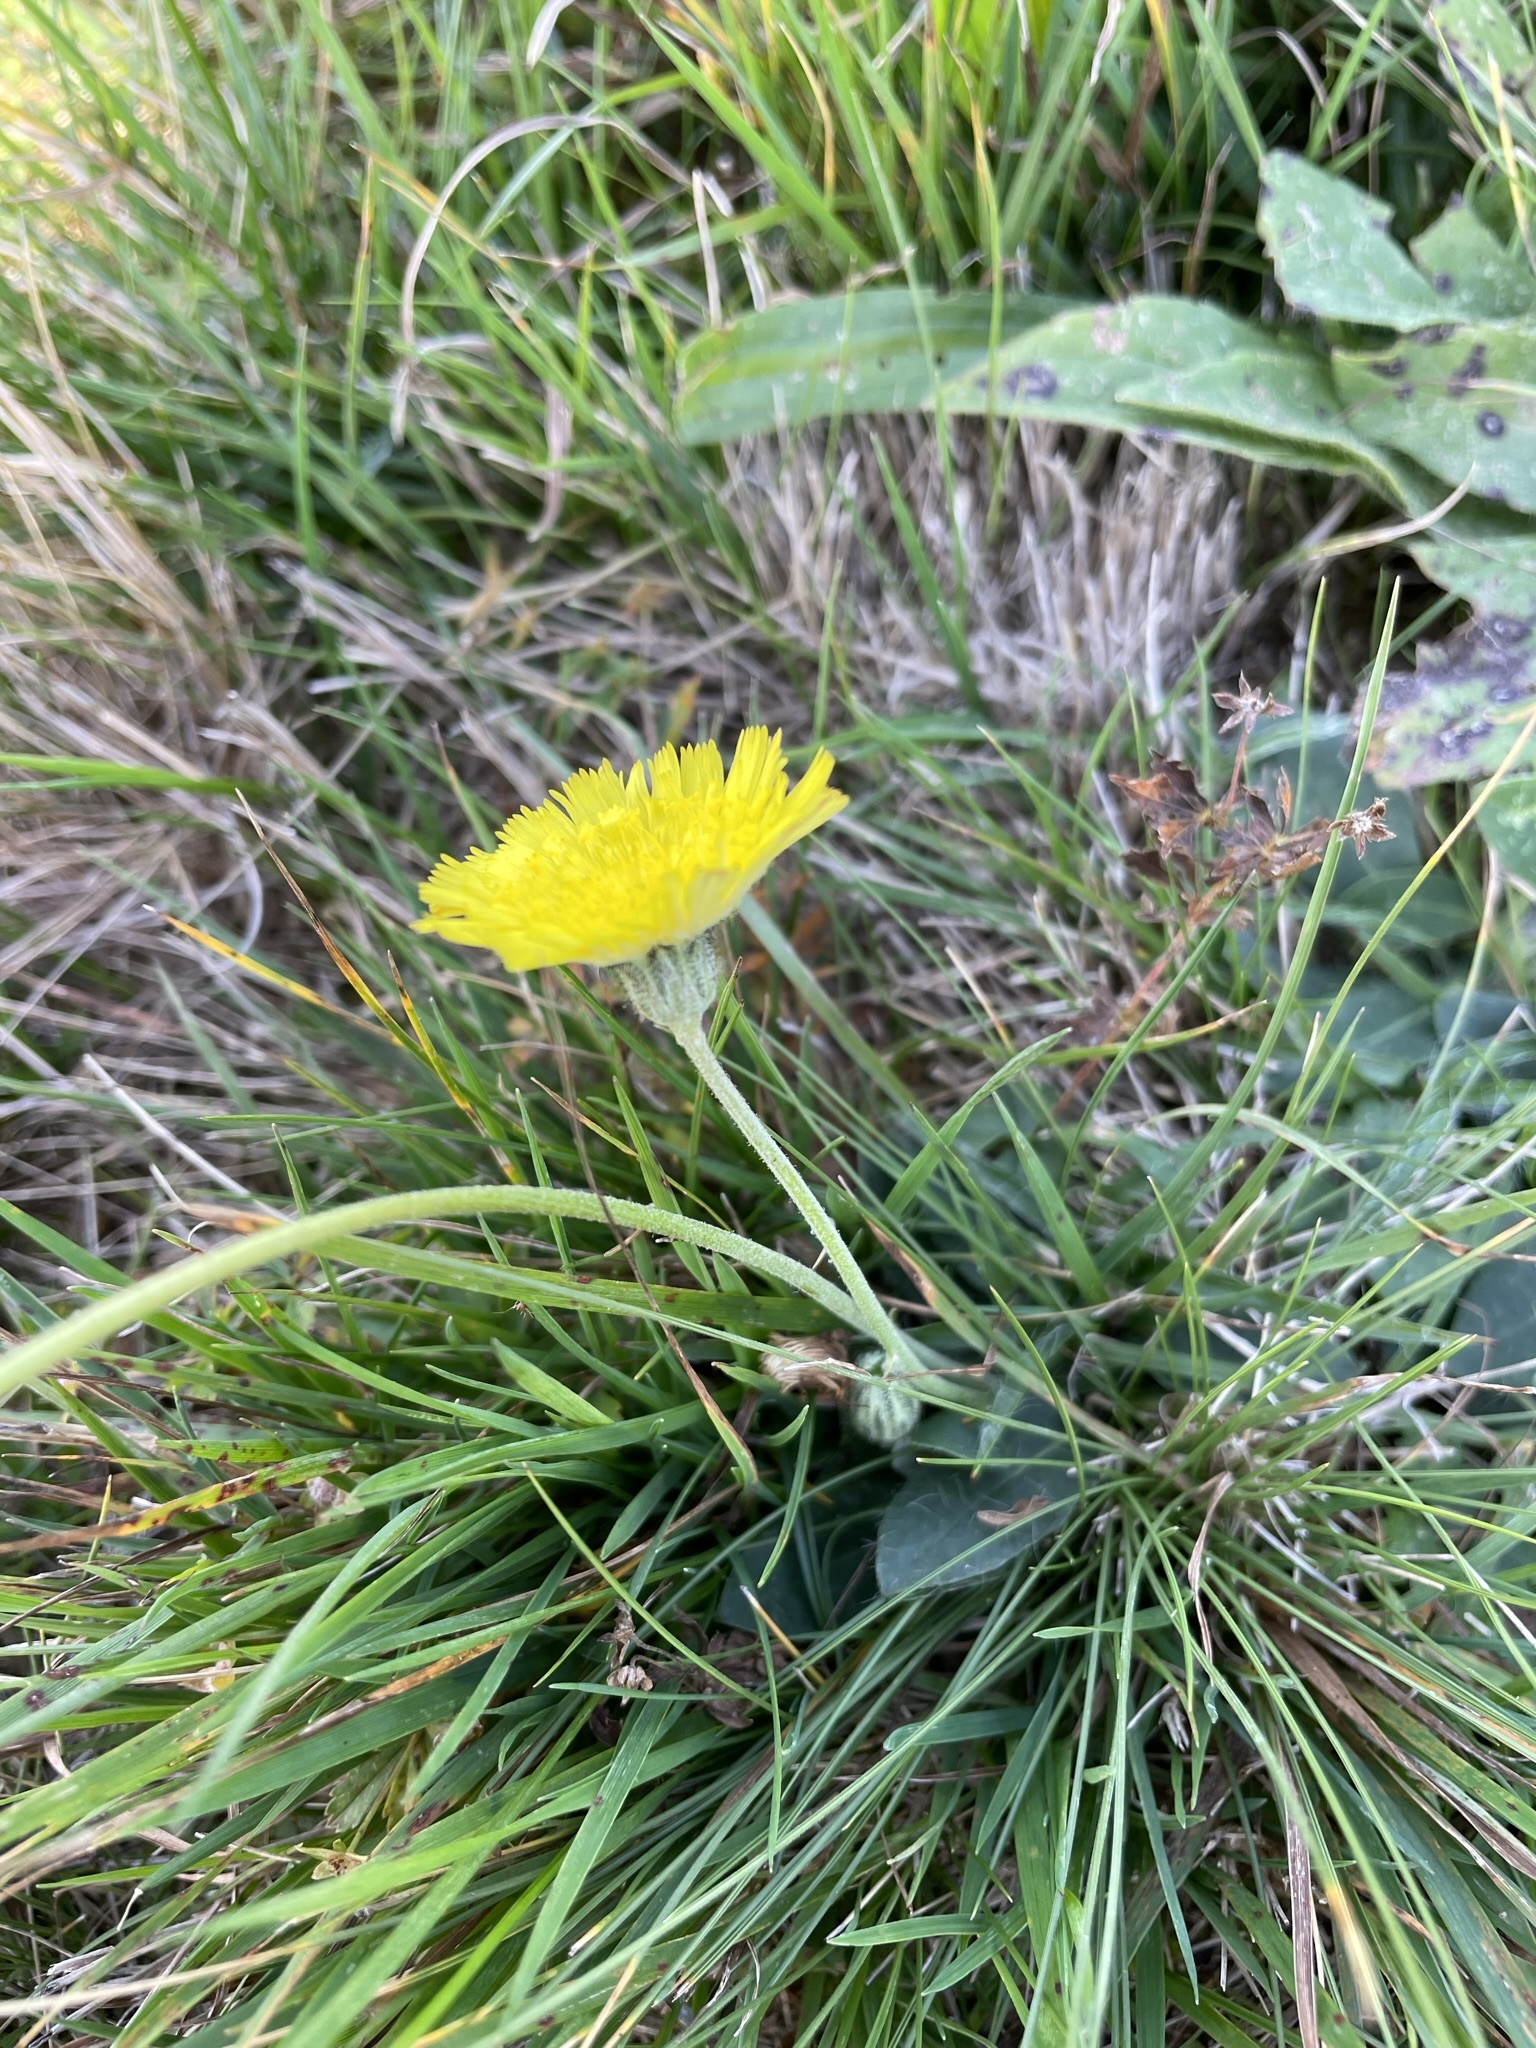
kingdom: Plantae
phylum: Tracheophyta
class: Magnoliopsida
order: Asterales
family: Asteraceae
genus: Pilosella
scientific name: Pilosella officinarum
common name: Mouse-ear hawkweed
